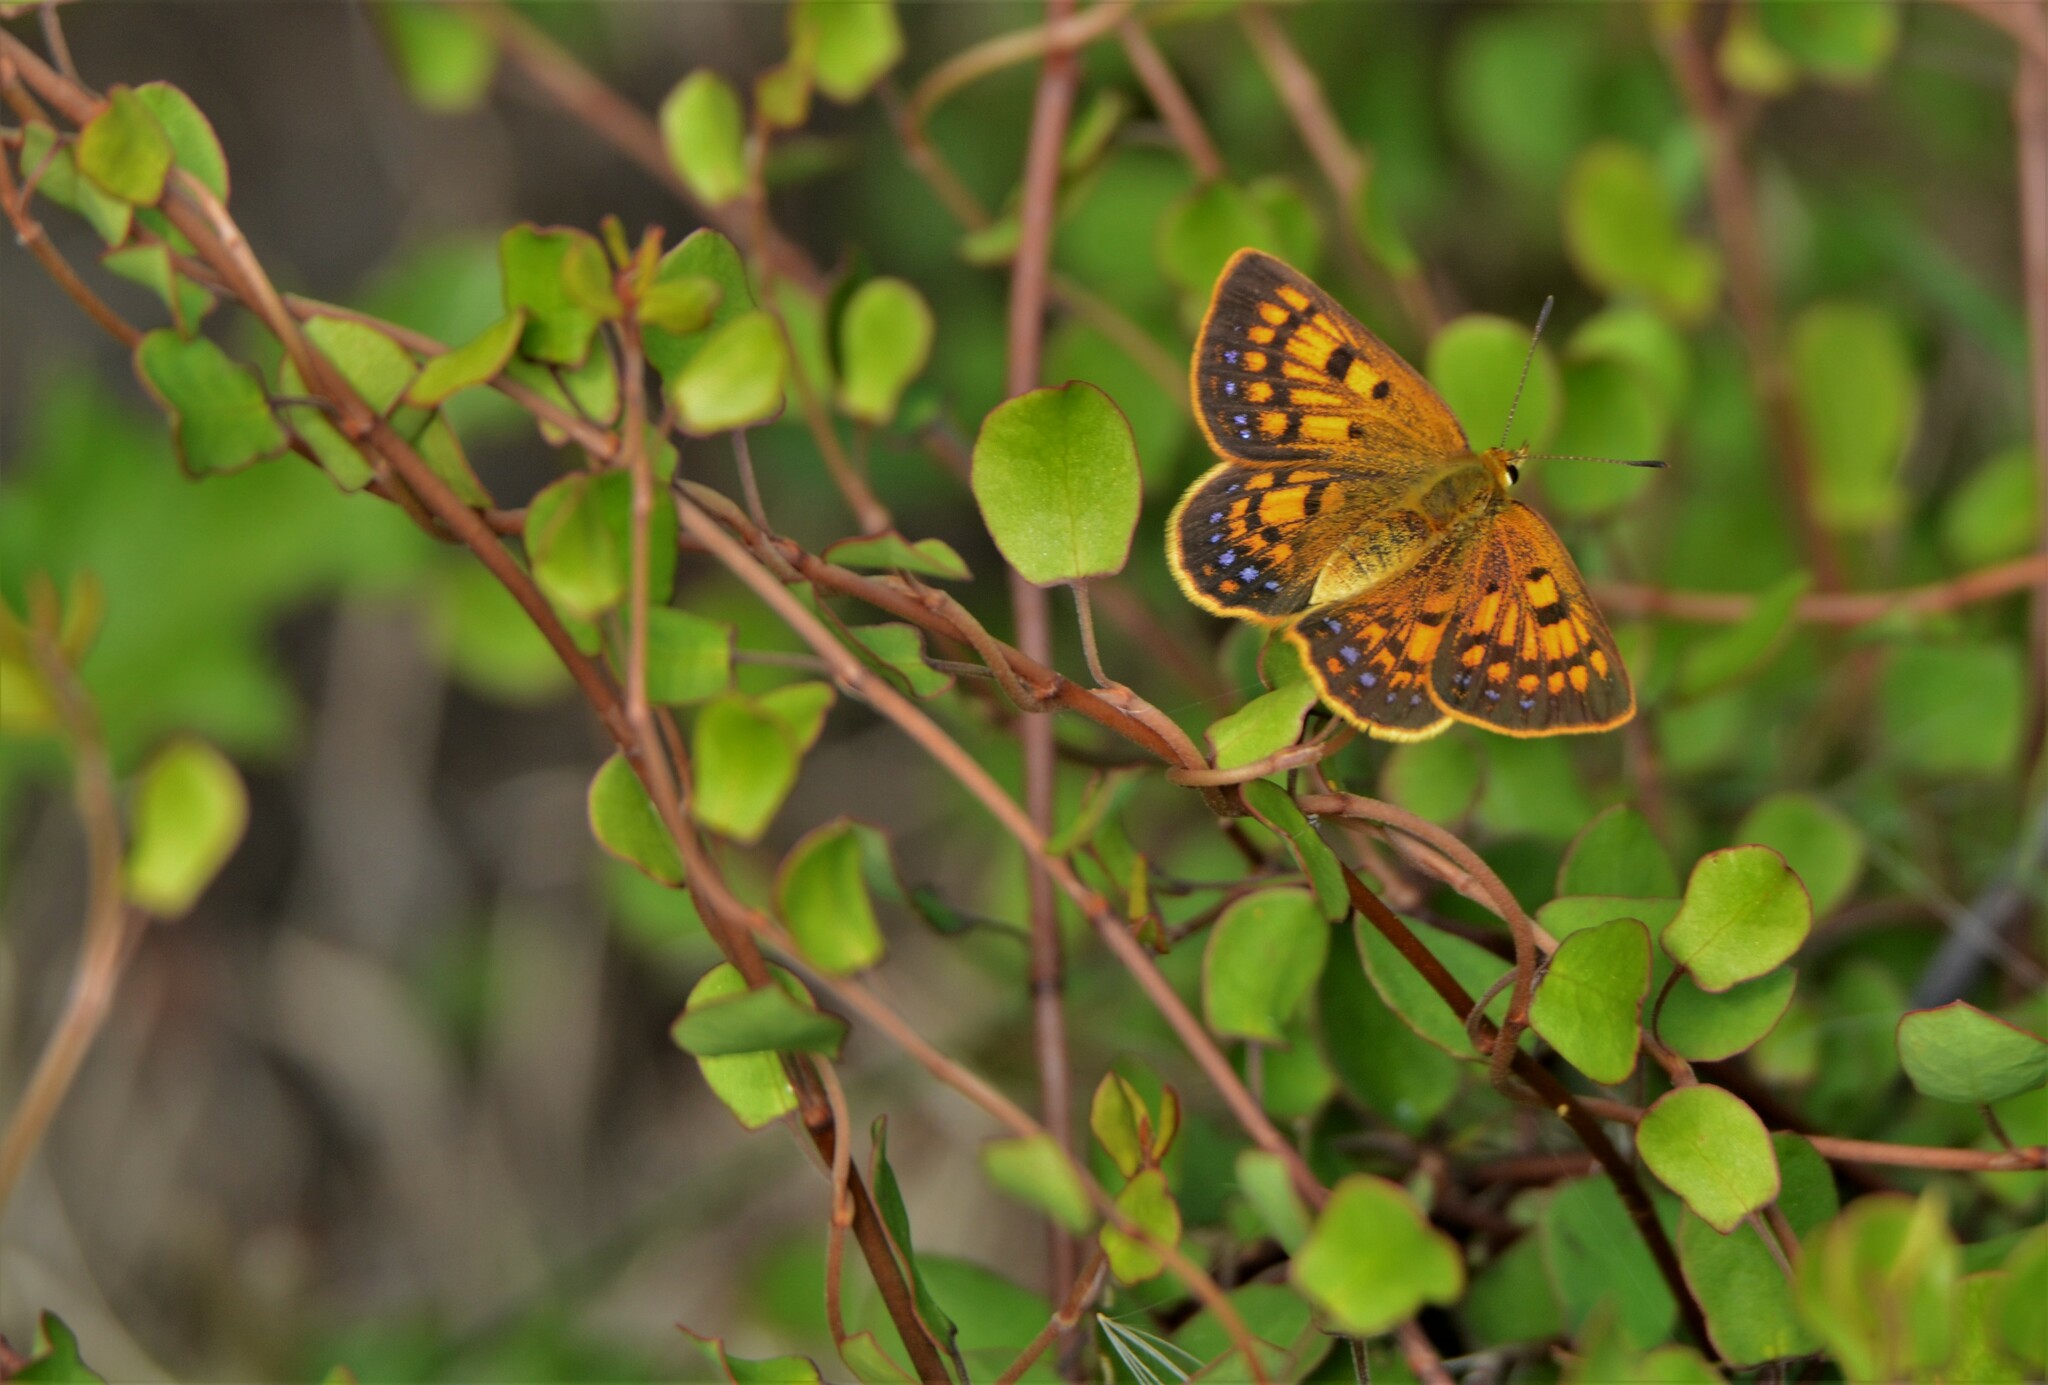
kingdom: Animalia
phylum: Arthropoda
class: Insecta
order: Lepidoptera
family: Lycaenidae
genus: Lycaena
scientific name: Lycaena
